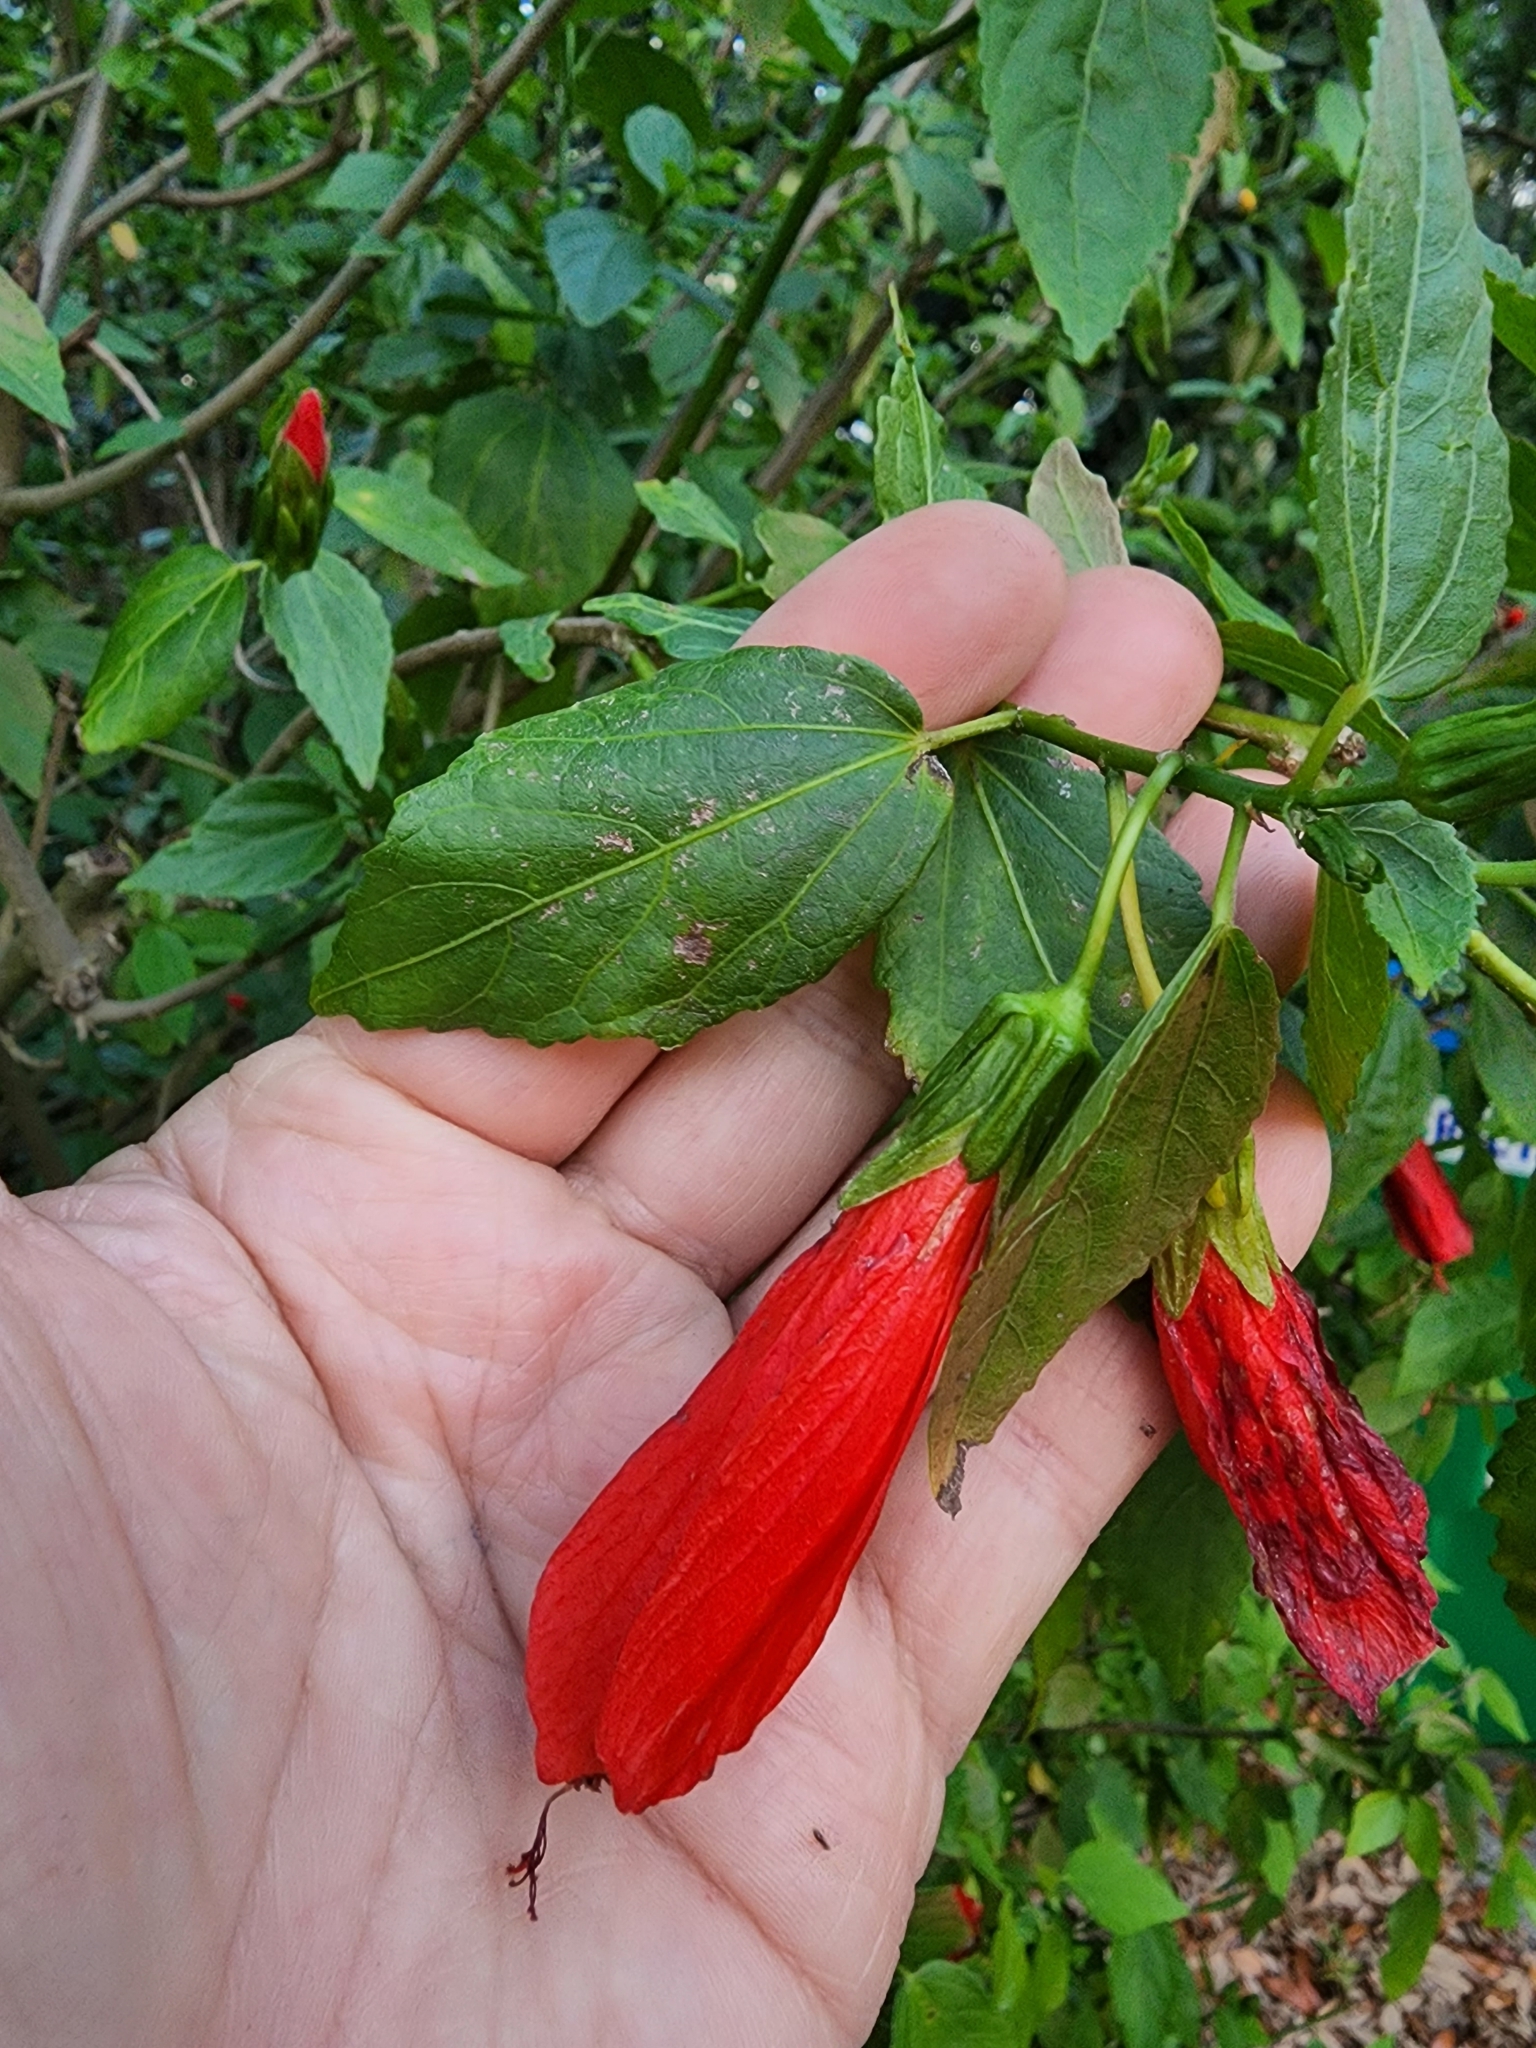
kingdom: Plantae
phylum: Tracheophyta
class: Magnoliopsida
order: Malvales
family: Malvaceae
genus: Malvaviscus
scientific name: Malvaviscus penduliflorus
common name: Mazapan
